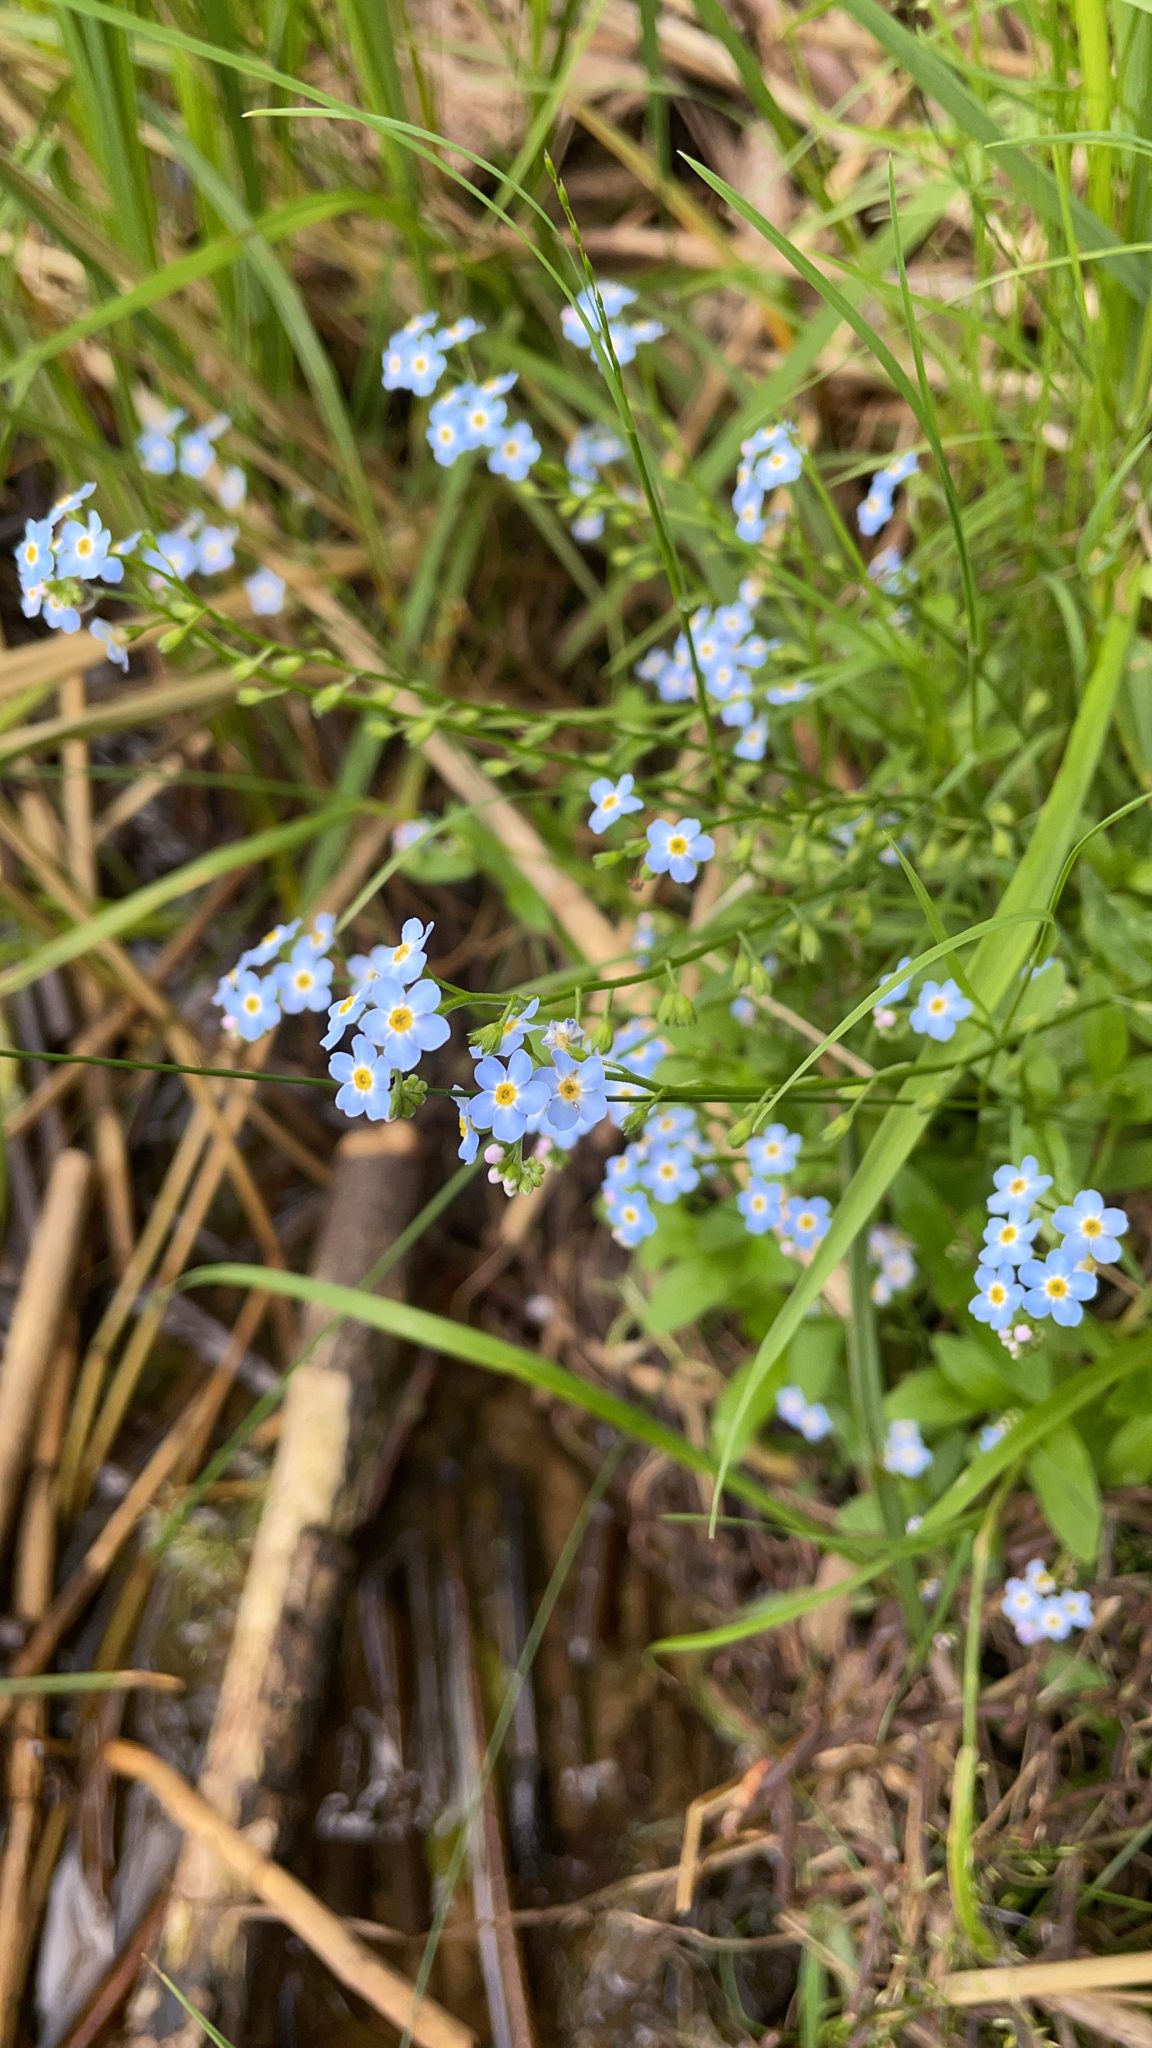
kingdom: Plantae
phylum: Tracheophyta
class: Magnoliopsida
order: Boraginales
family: Boraginaceae
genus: Myosotis
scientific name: Myosotis scorpioides
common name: Water forget-me-not
